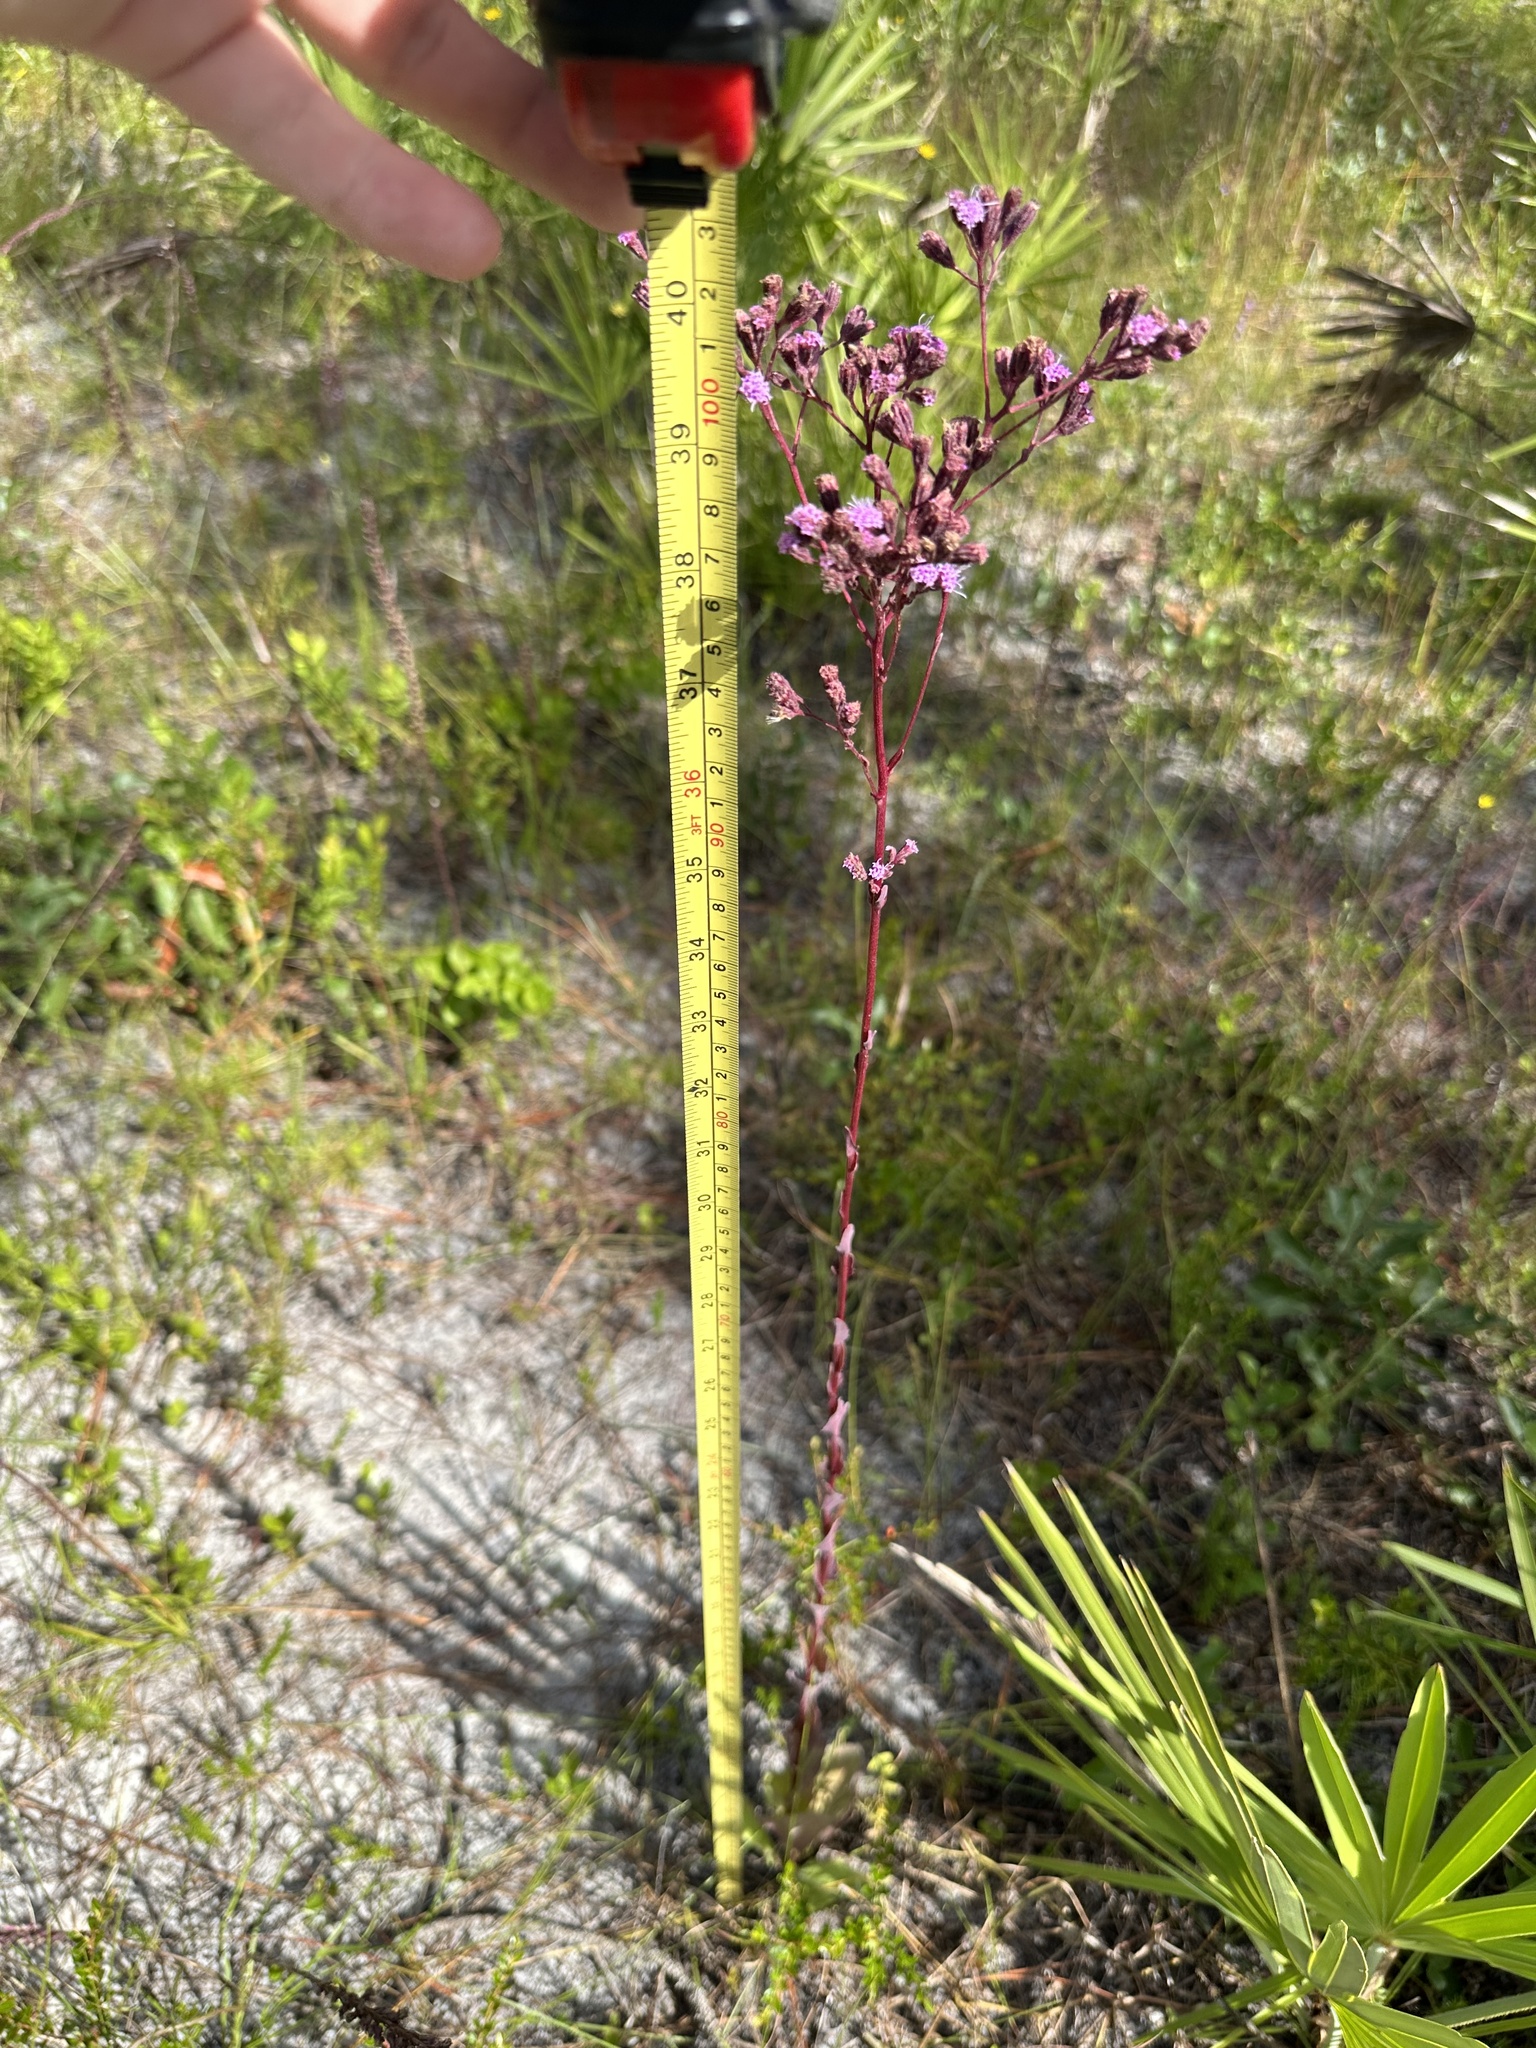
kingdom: Plantae
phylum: Tracheophyta
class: Magnoliopsida
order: Asterales
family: Asteraceae
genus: Carphephorus
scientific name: Carphephorus odoratissimus
